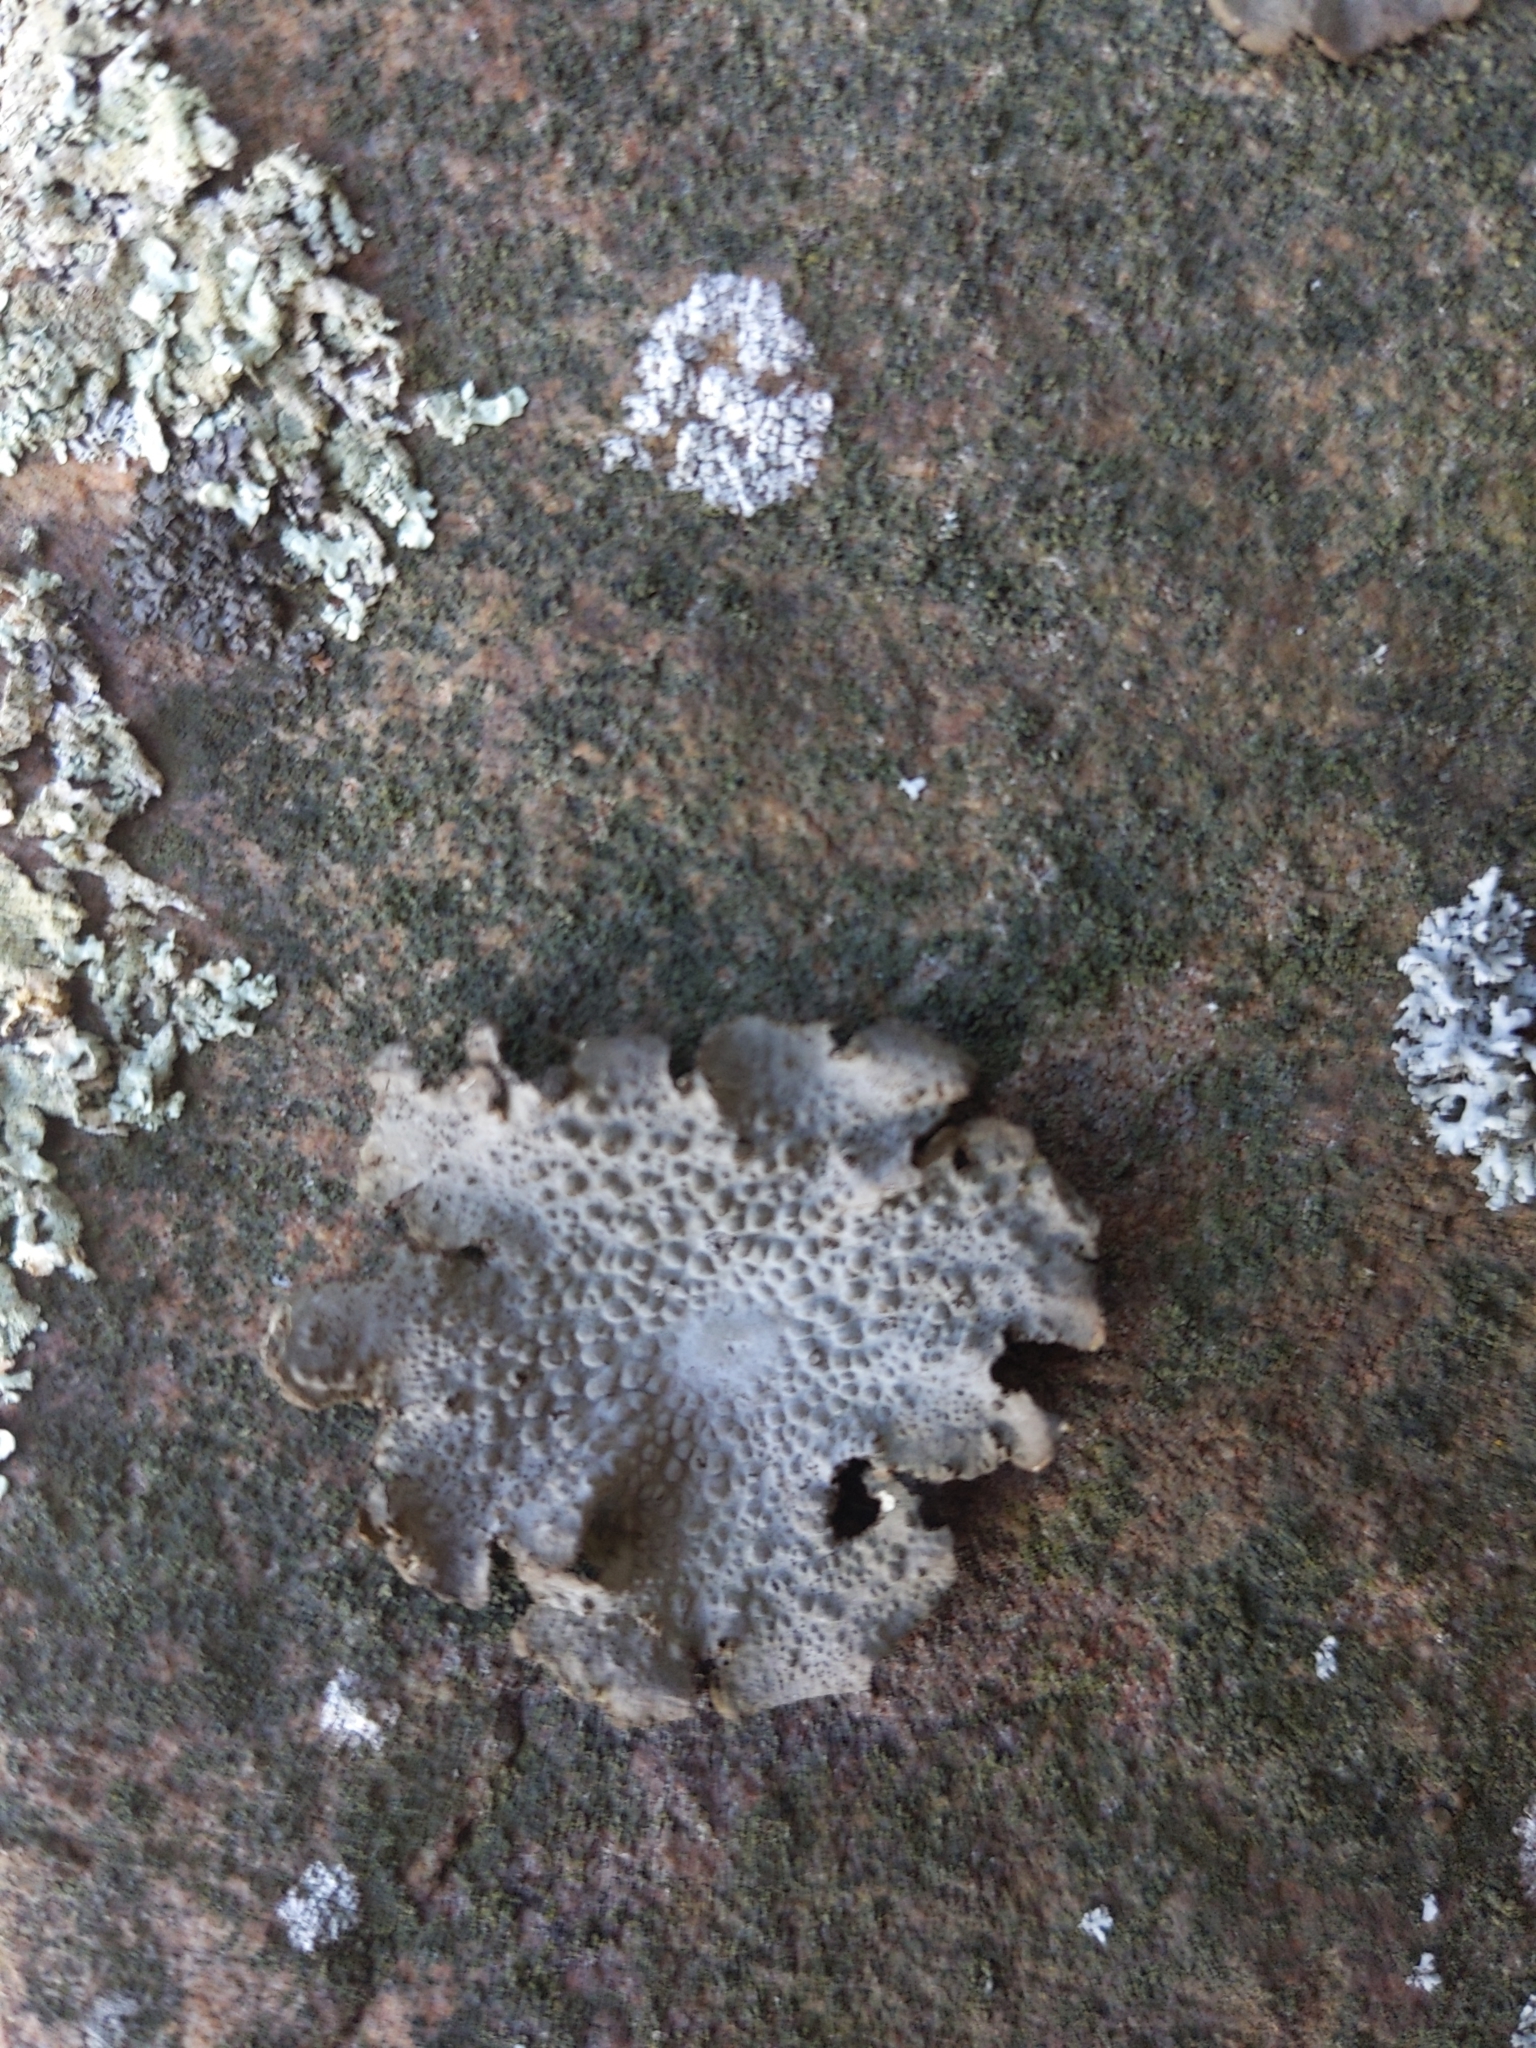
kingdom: Fungi
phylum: Ascomycota
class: Lecanoromycetes
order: Umbilicariales
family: Umbilicariaceae
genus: Lasallia
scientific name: Lasallia papulosa
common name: Common toadskin lichen
